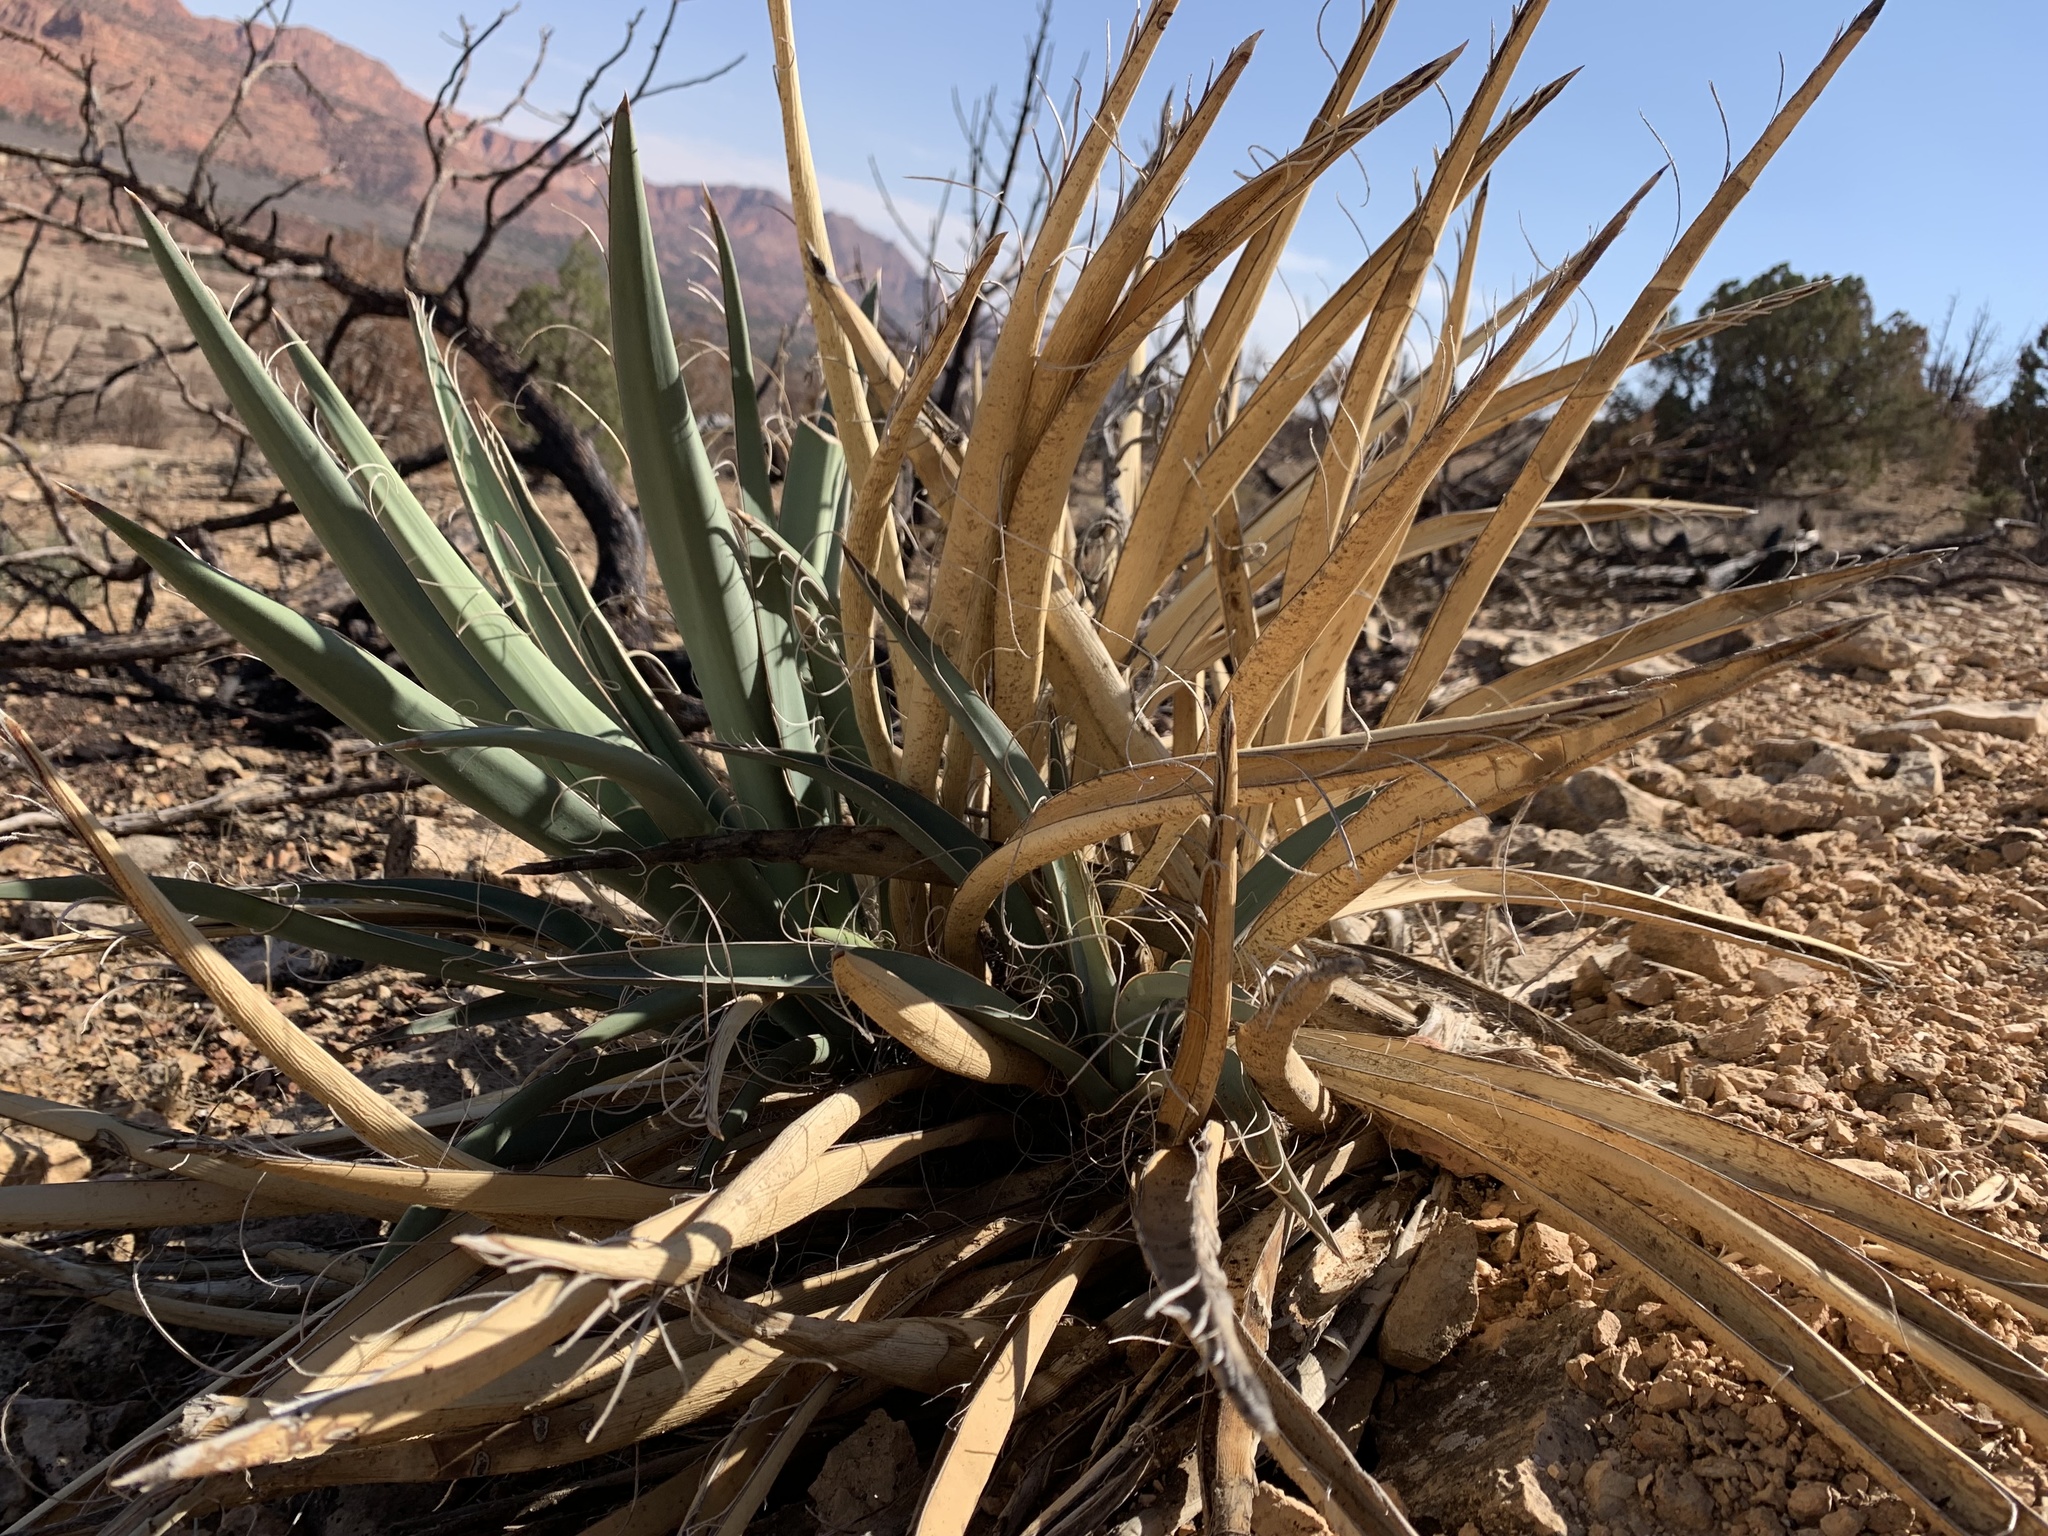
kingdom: Plantae
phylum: Tracheophyta
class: Liliopsida
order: Asparagales
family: Asparagaceae
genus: Yucca
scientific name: Yucca baccata
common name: Banana yucca
